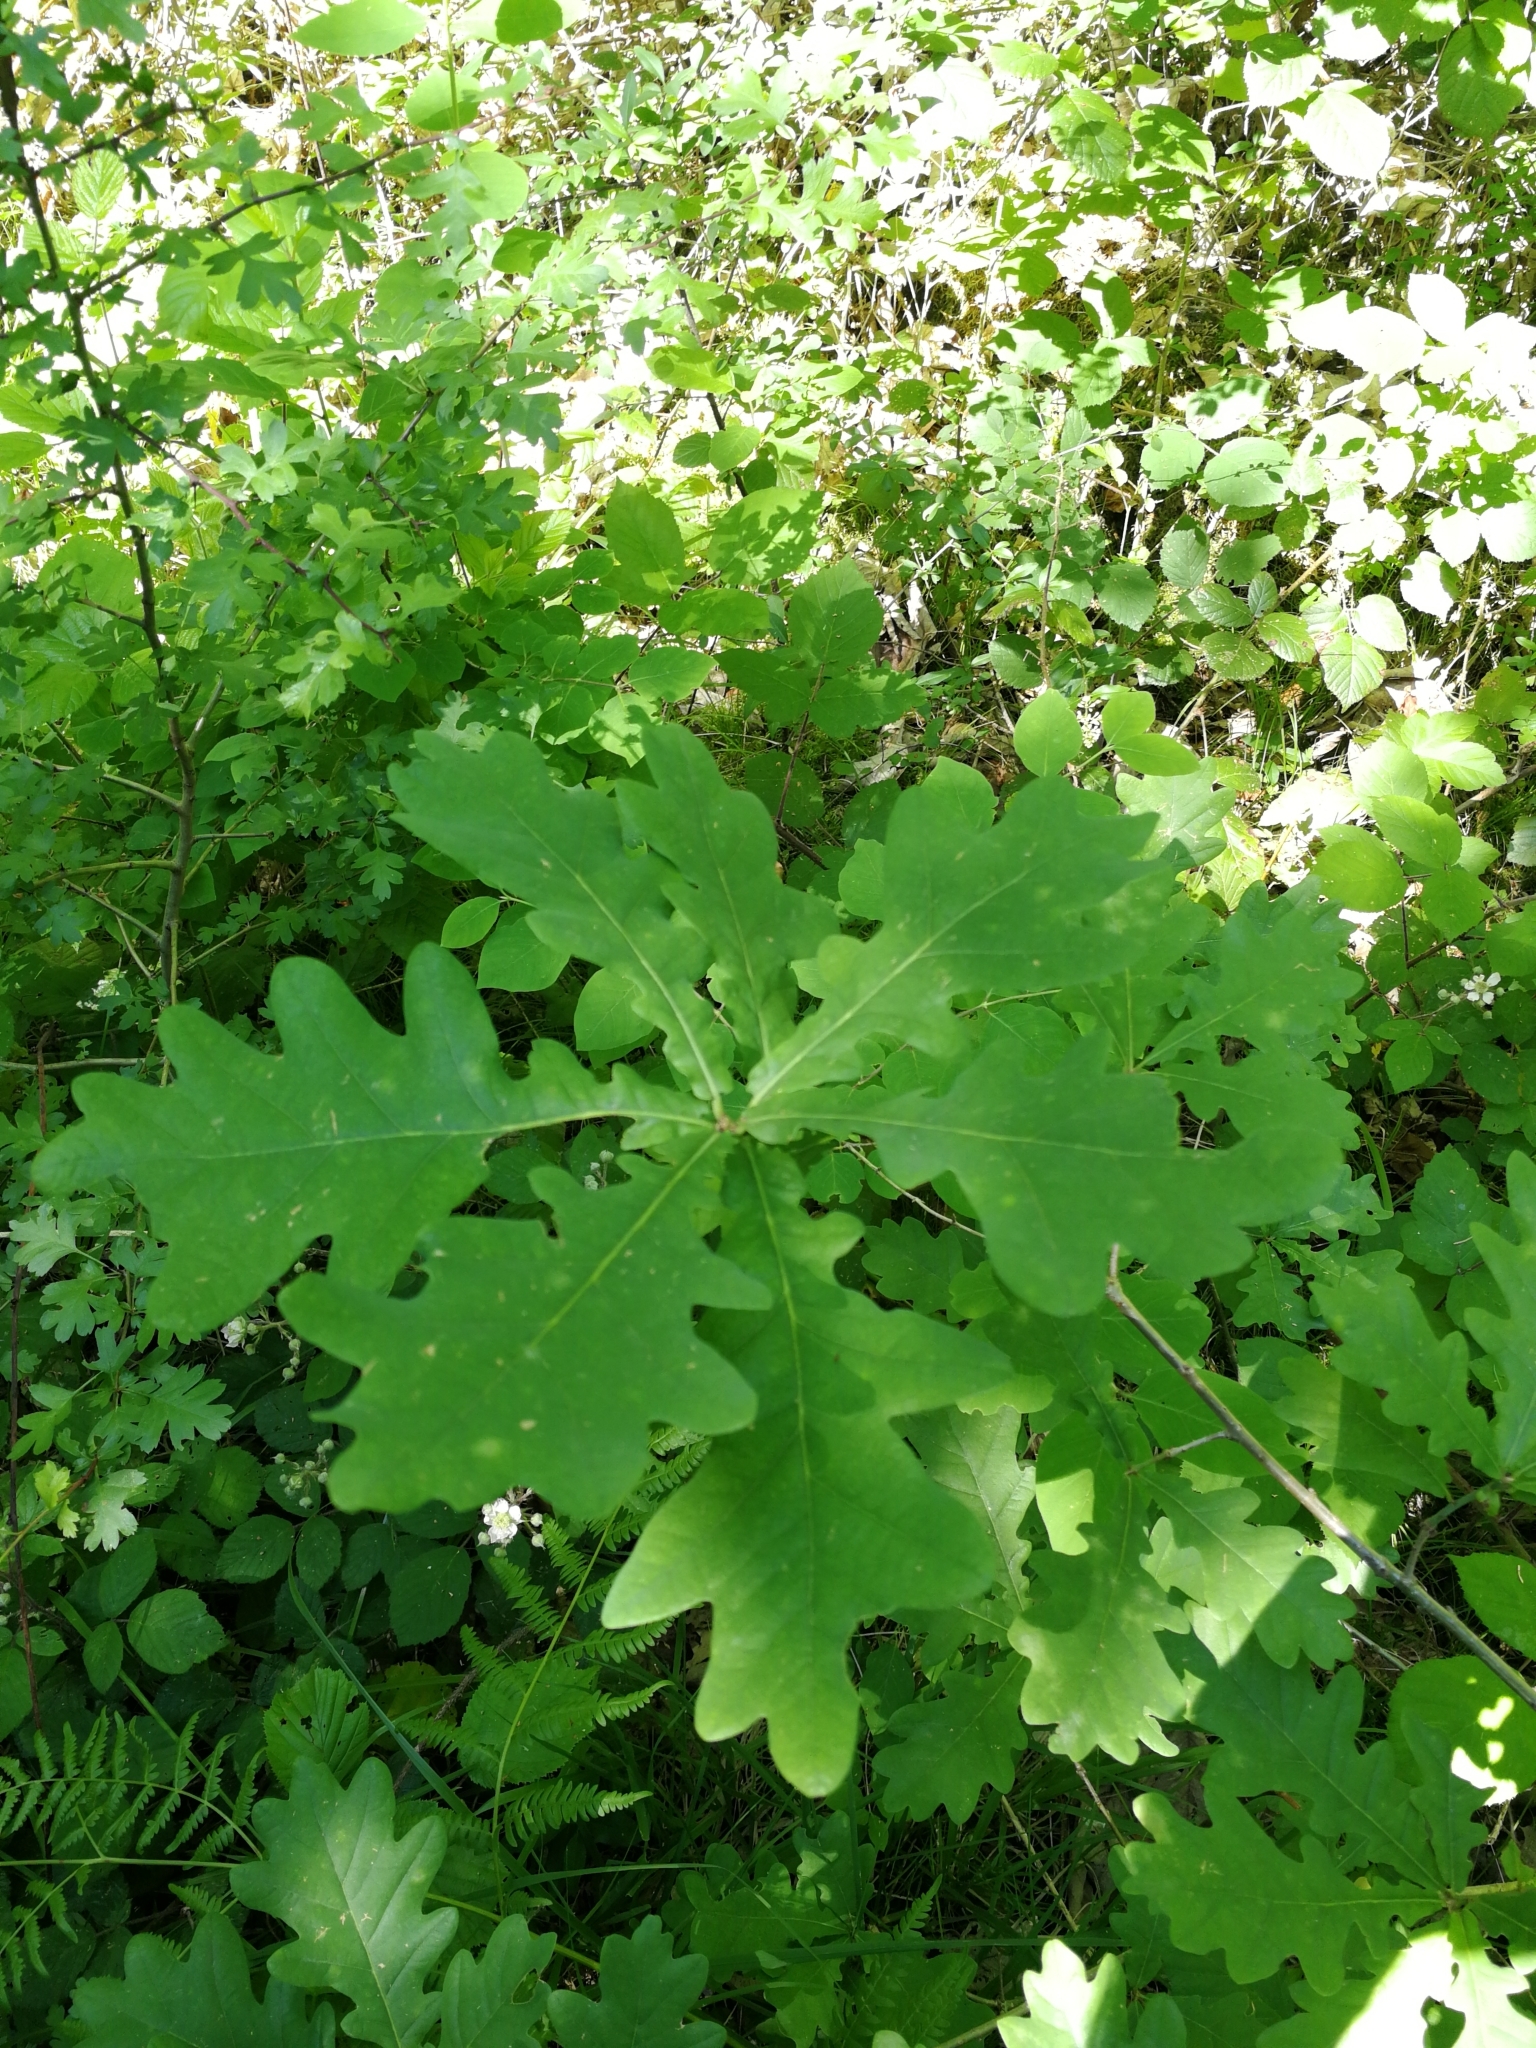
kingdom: Plantae
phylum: Tracheophyta
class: Magnoliopsida
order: Fagales
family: Fagaceae
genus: Quercus
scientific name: Quercus robur
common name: Pedunculate oak
